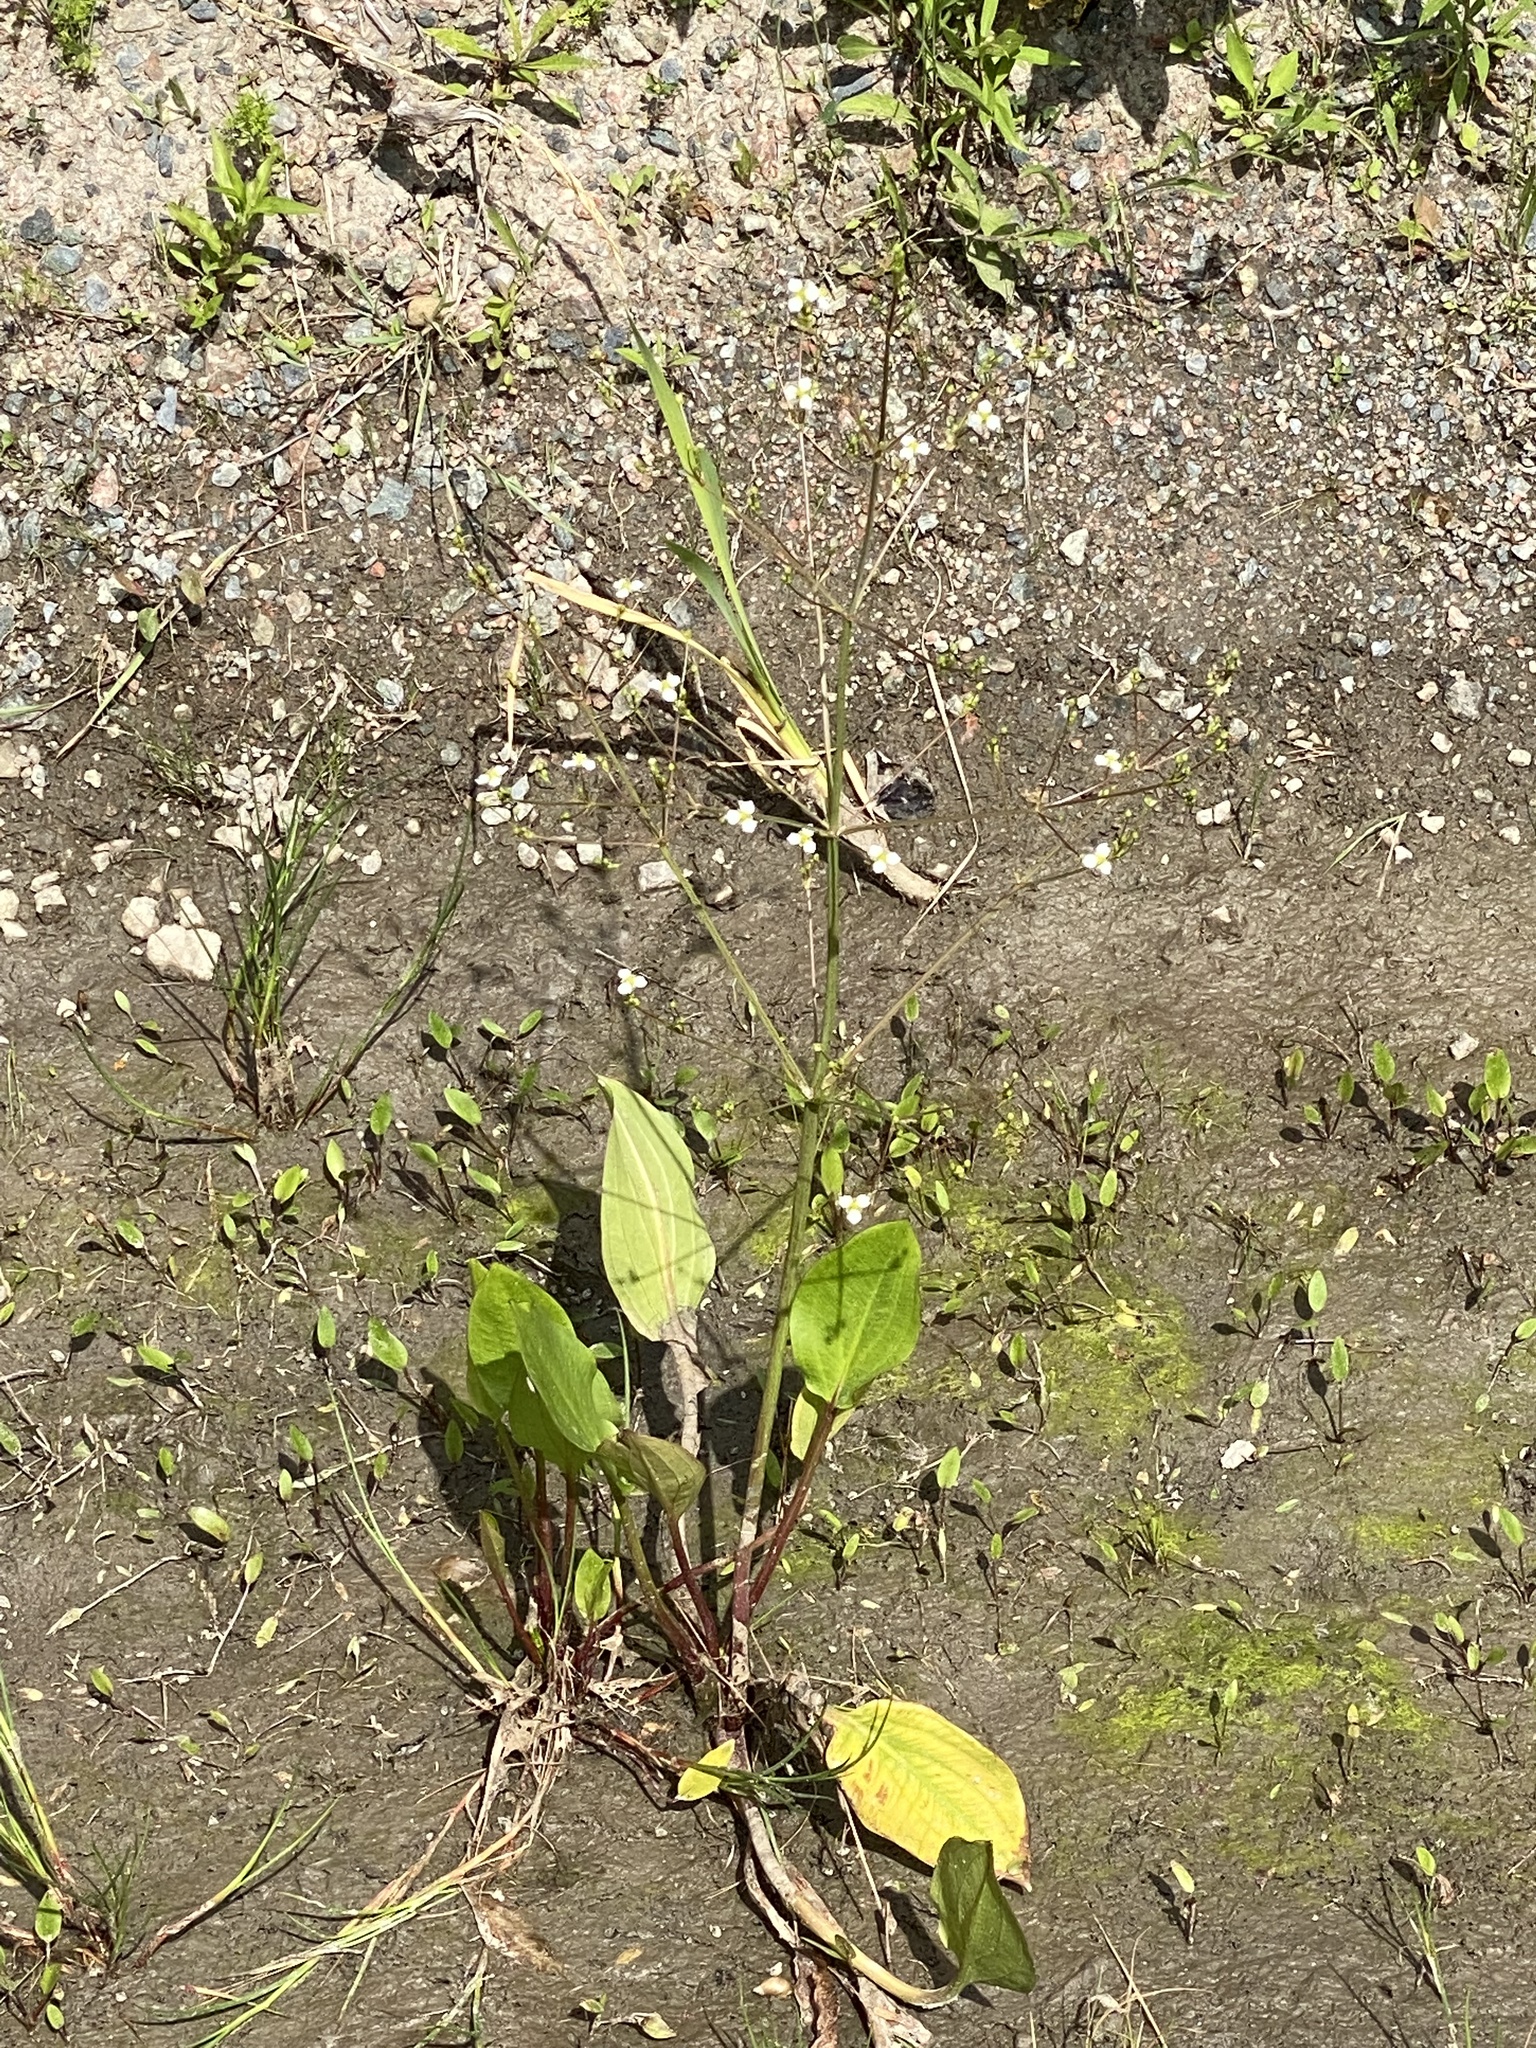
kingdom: Plantae
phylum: Tracheophyta
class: Liliopsida
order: Alismatales
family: Alismataceae
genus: Alisma
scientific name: Alisma triviale
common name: Northern water-plantain
